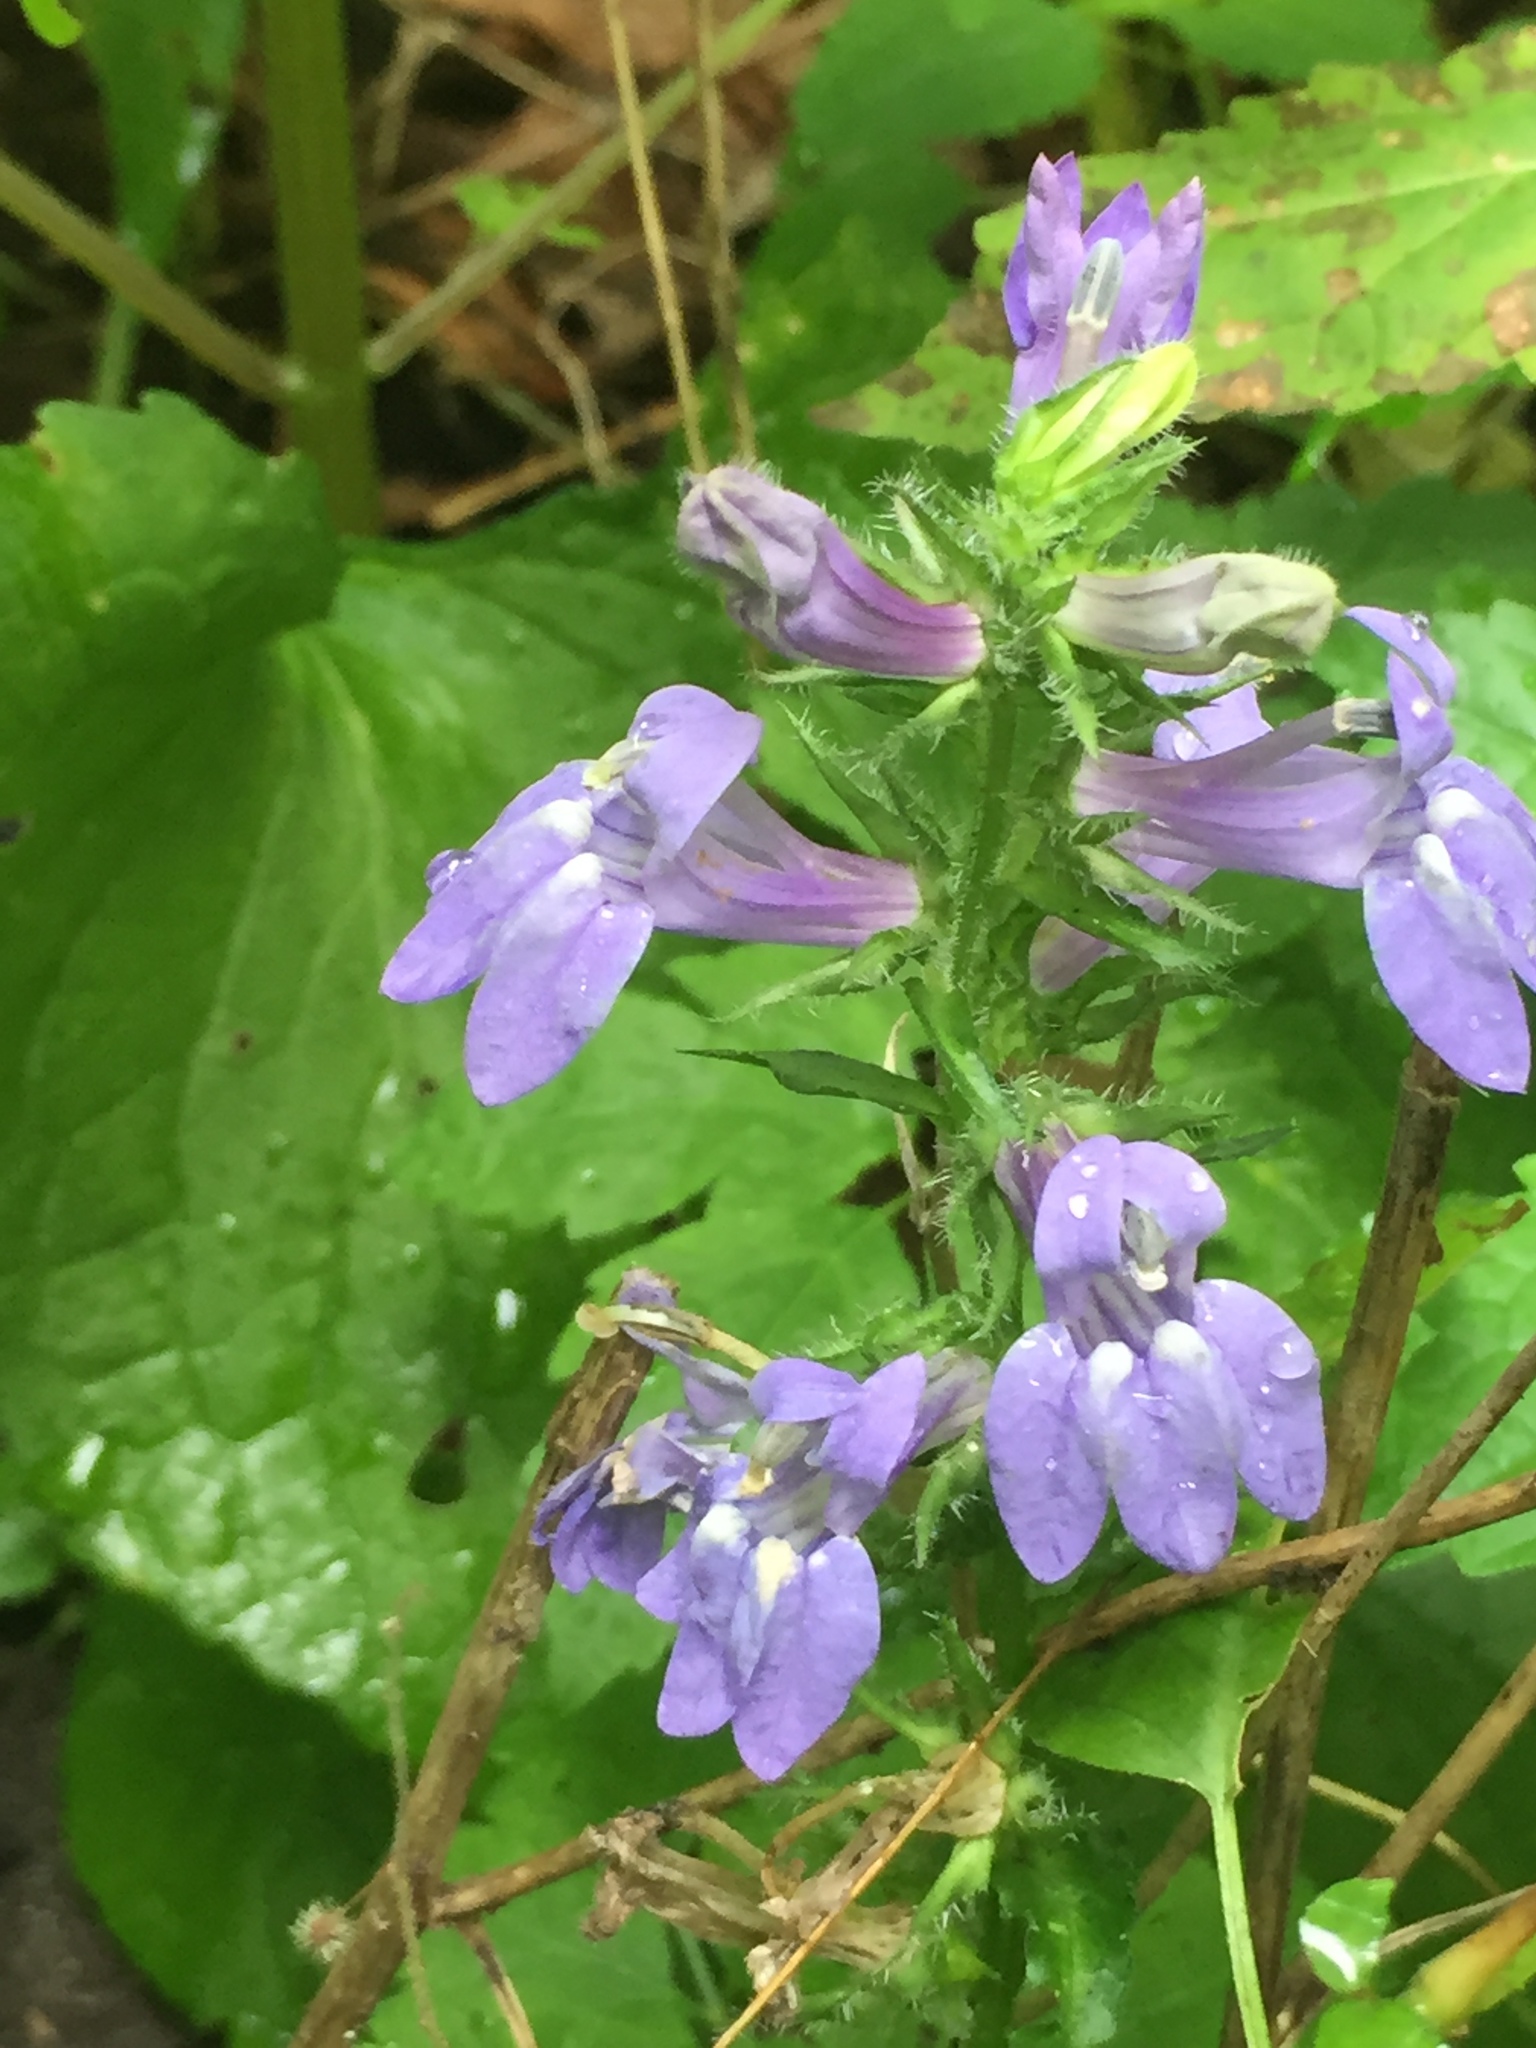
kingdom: Plantae
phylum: Tracheophyta
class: Magnoliopsida
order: Asterales
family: Campanulaceae
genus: Lobelia
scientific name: Lobelia siphilitica
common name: Great lobelia
